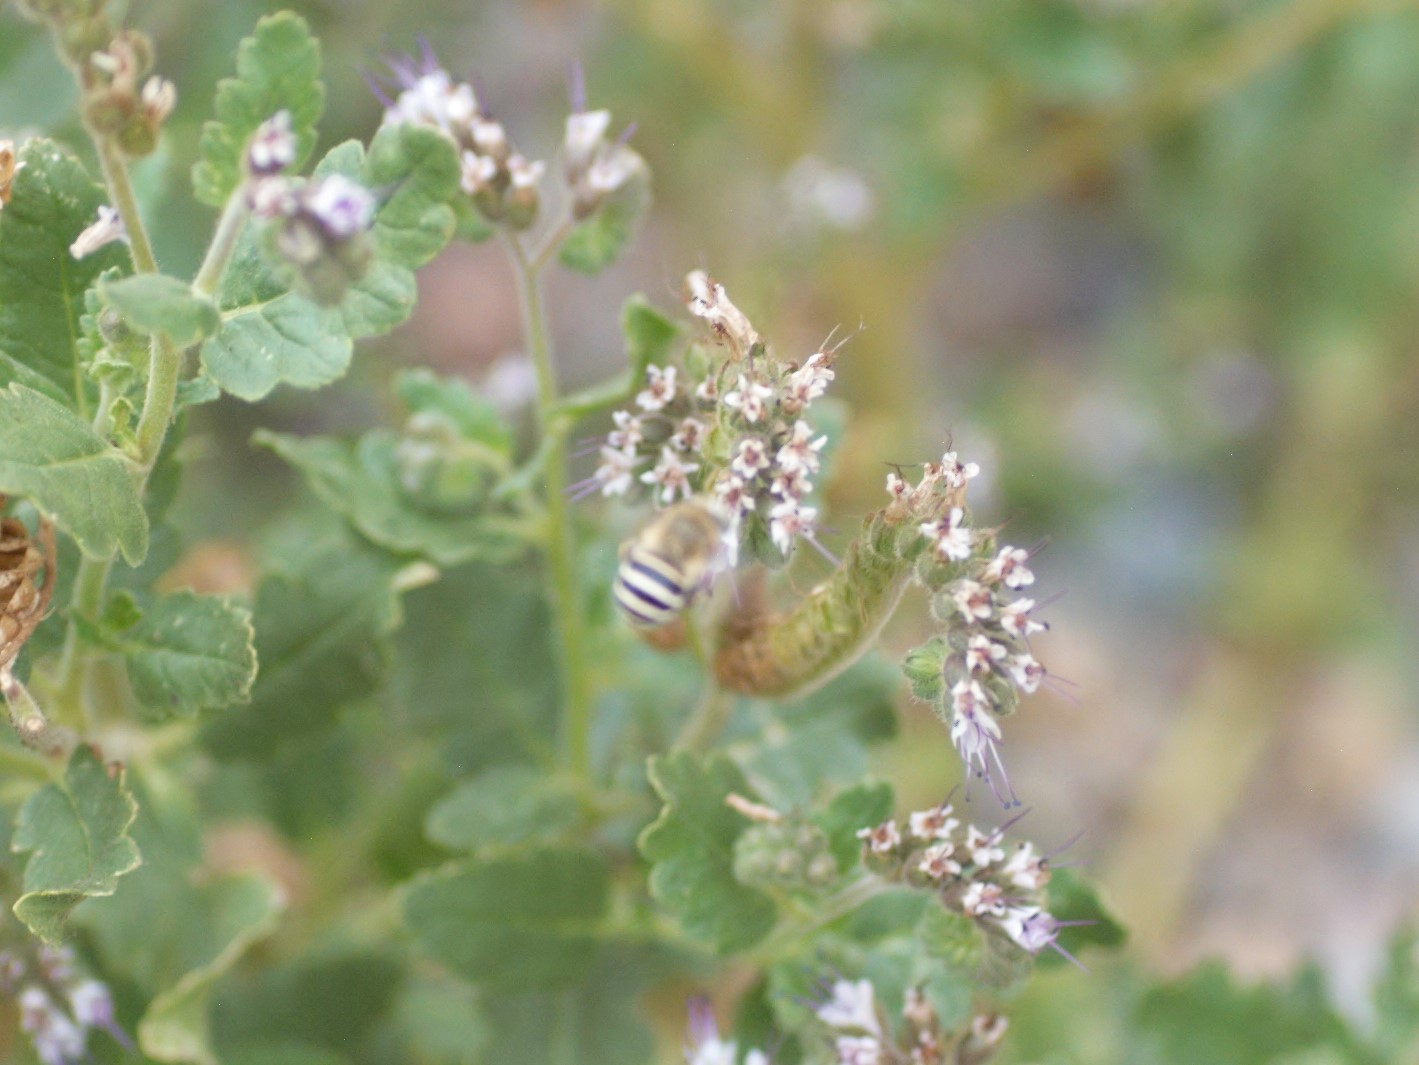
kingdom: Animalia
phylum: Arthropoda
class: Insecta
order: Hymenoptera
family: Apidae
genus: Anthophora
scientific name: Anthophora californica
